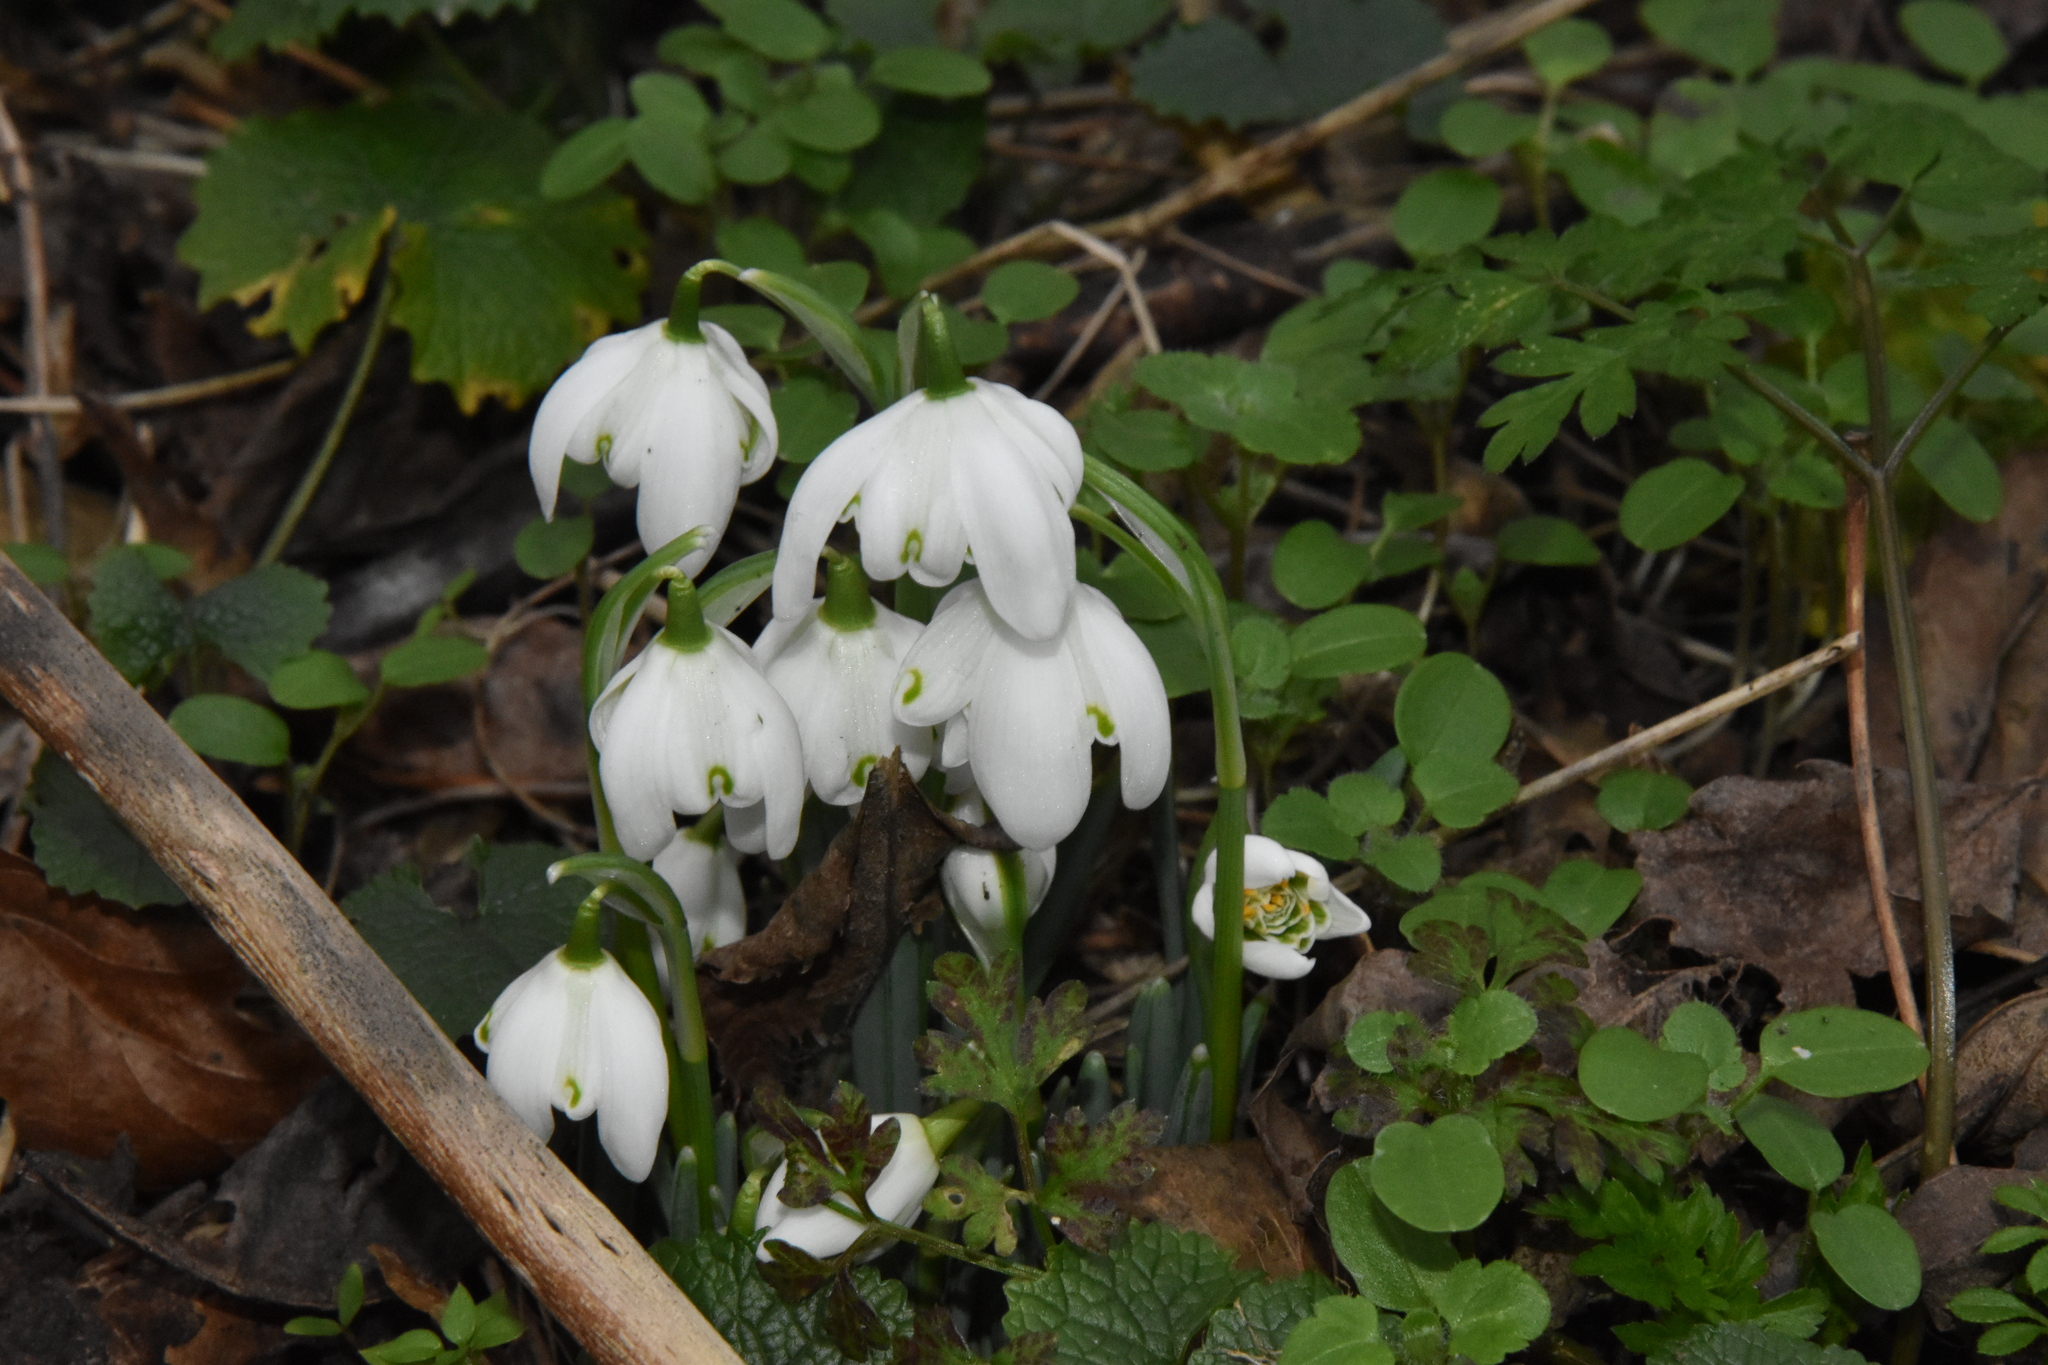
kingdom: Plantae
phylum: Tracheophyta
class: Liliopsida
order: Asparagales
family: Amaryllidaceae
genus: Galanthus
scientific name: Galanthus nivalis
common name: Snowdrop
